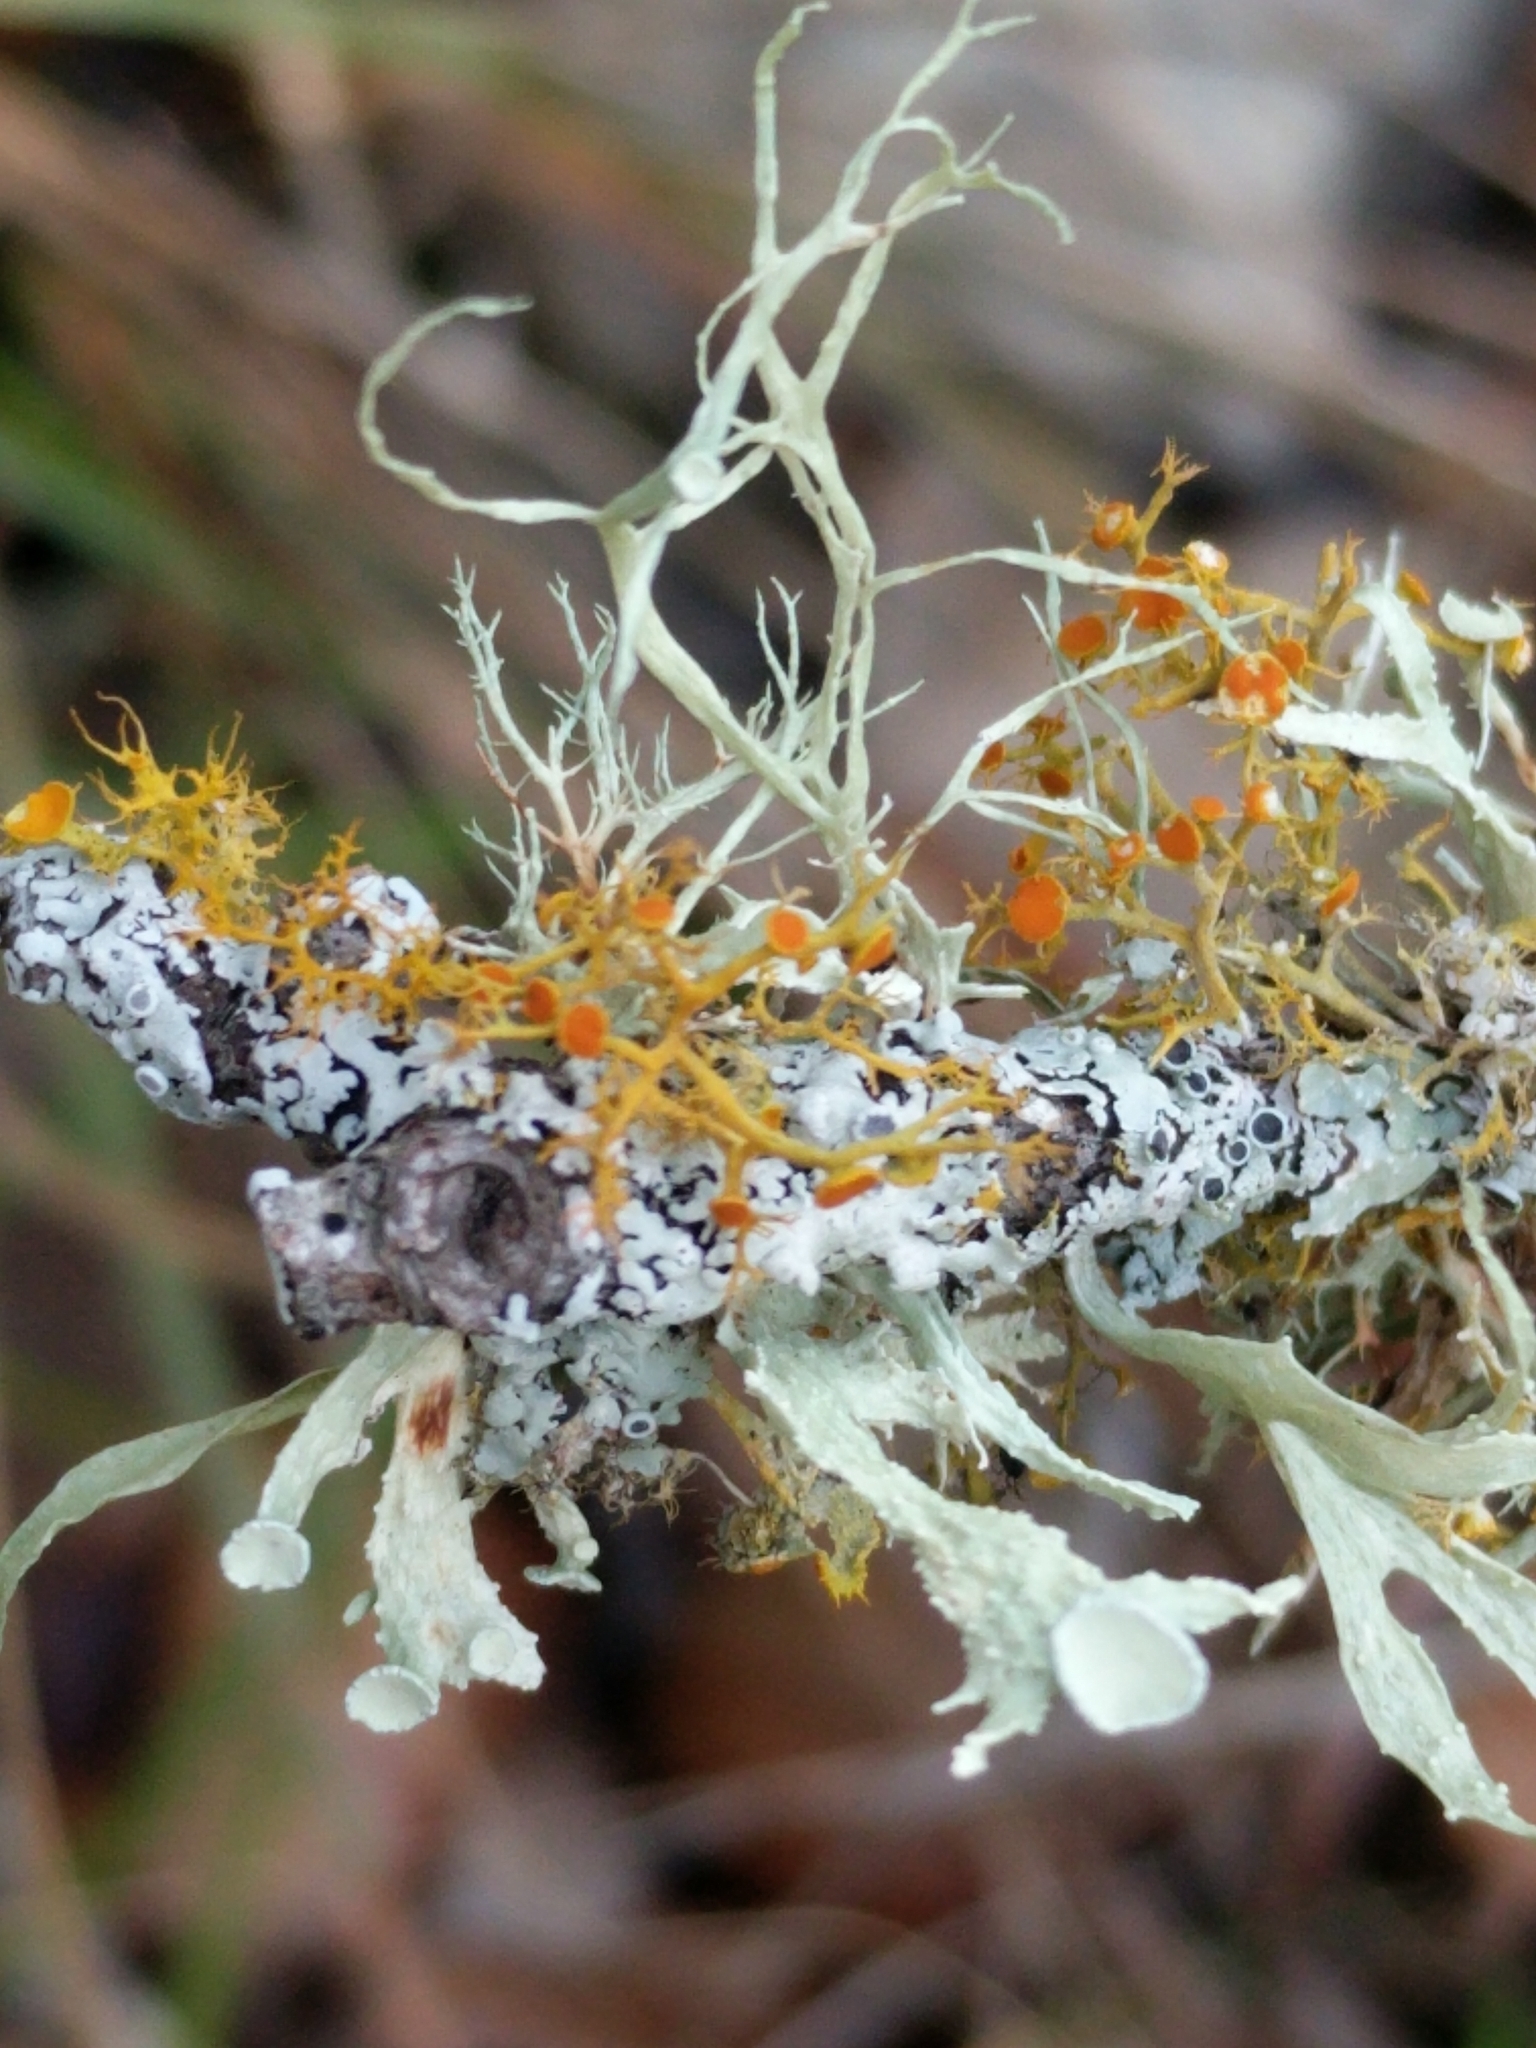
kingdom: Fungi
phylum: Ascomycota
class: Lecanoromycetes
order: Teloschistales
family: Teloschistaceae
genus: Teloschistes
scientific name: Teloschistes exilis
